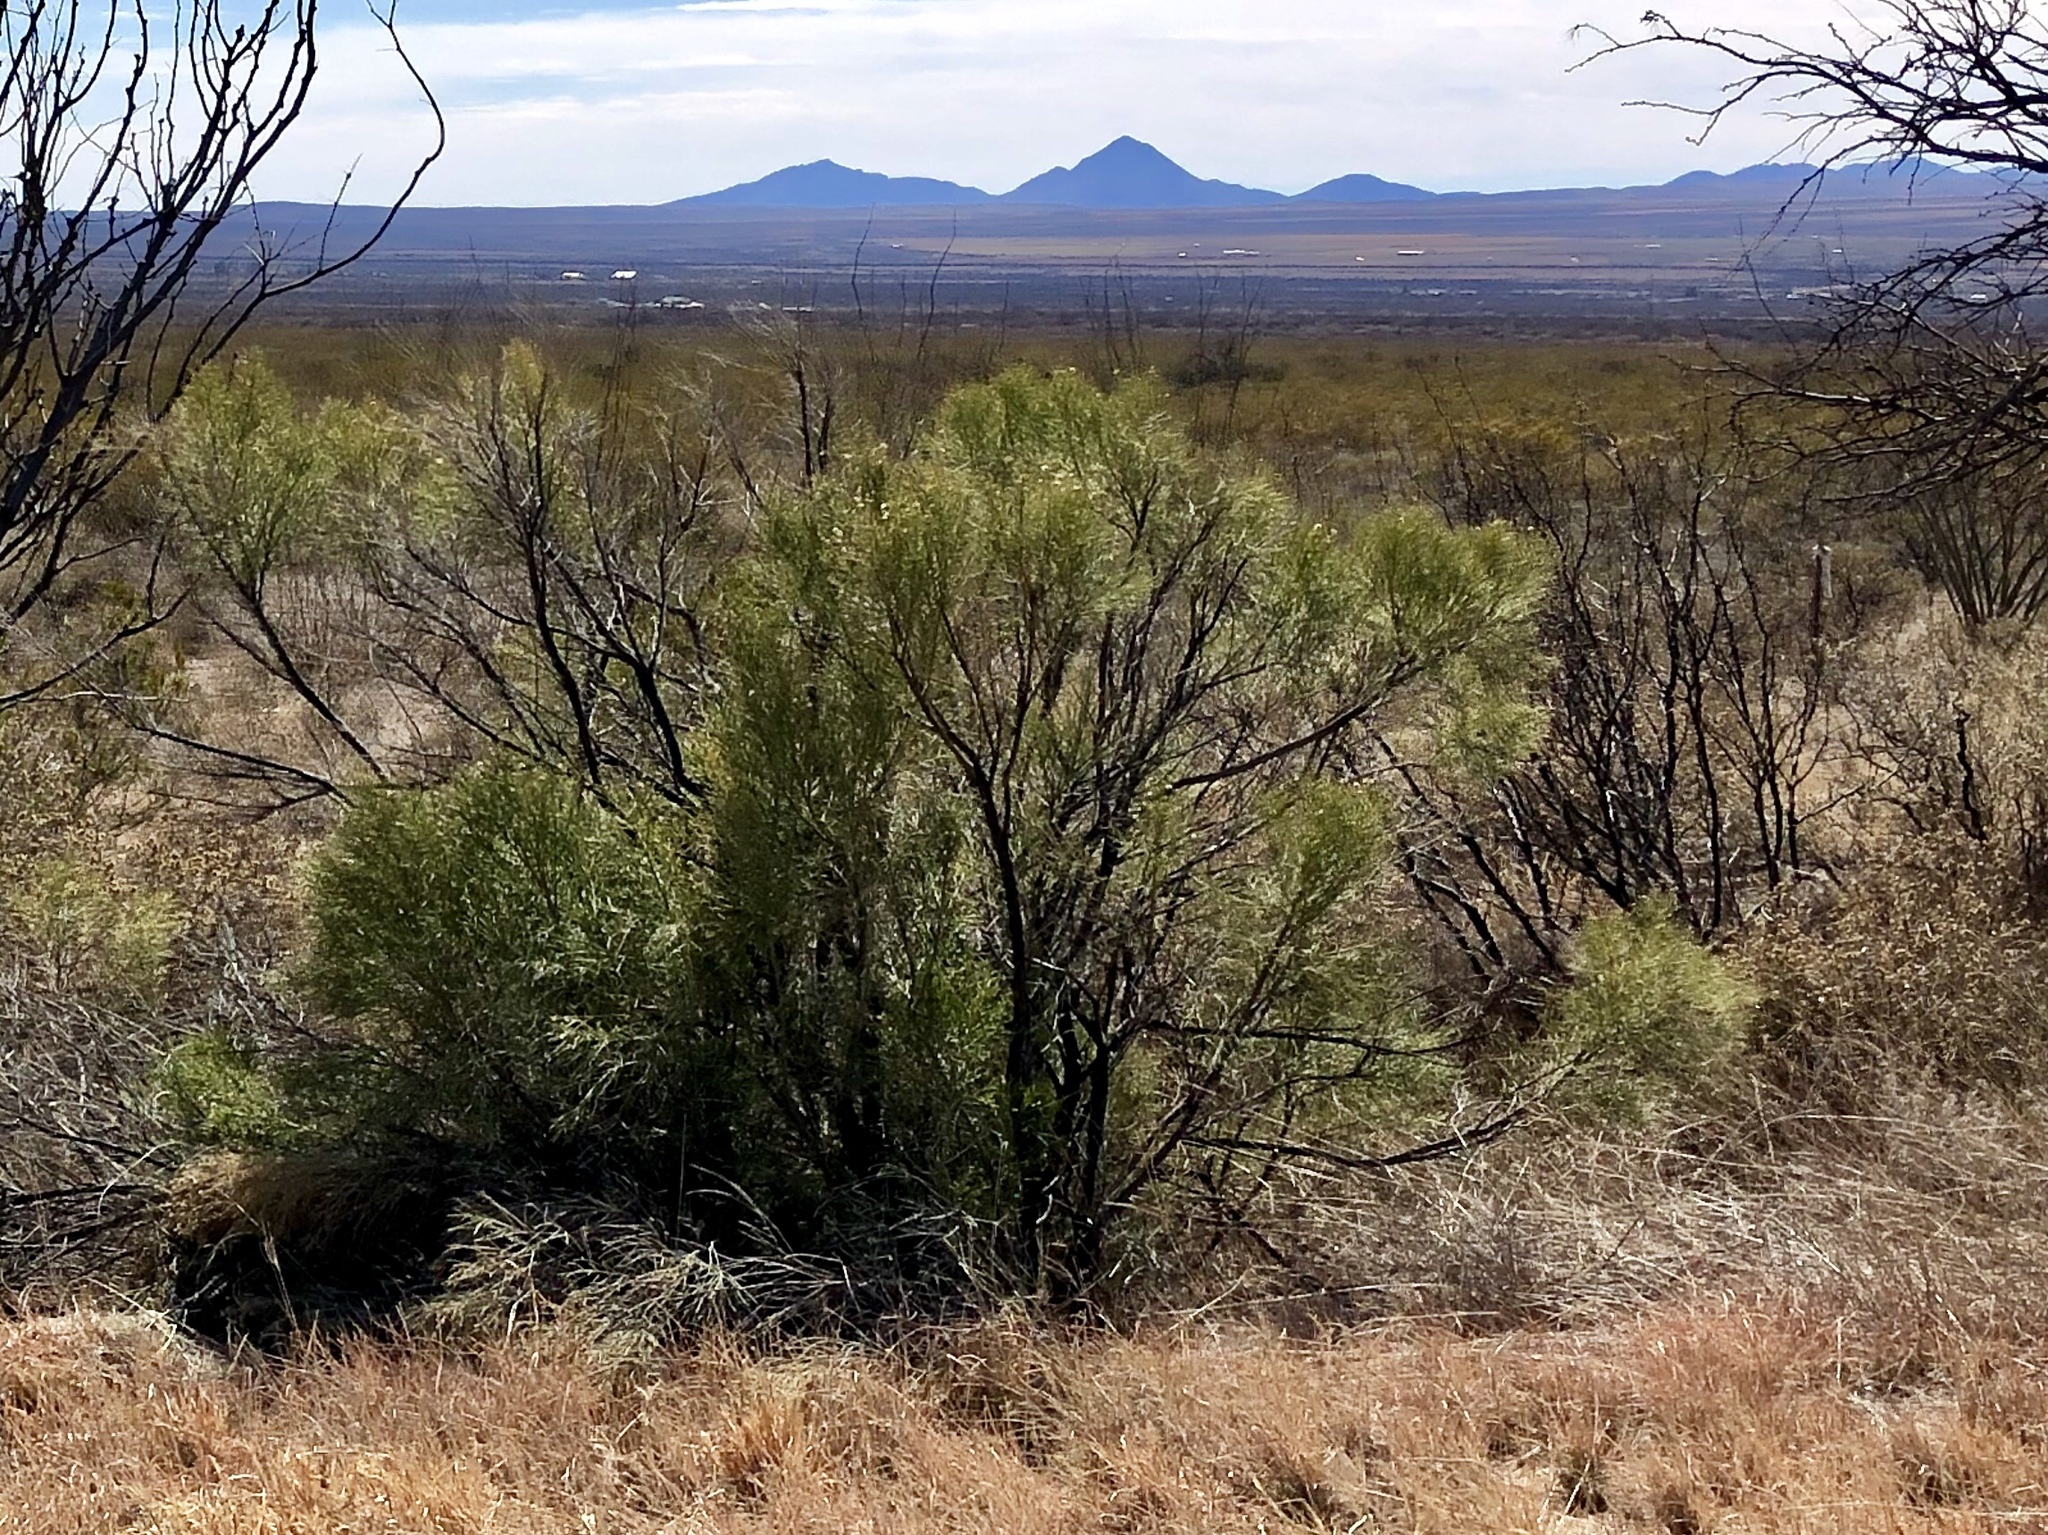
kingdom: Plantae
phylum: Tracheophyta
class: Magnoliopsida
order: Asterales
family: Asteraceae
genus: Baccharis
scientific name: Baccharis sarothroides
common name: Desert-broom
